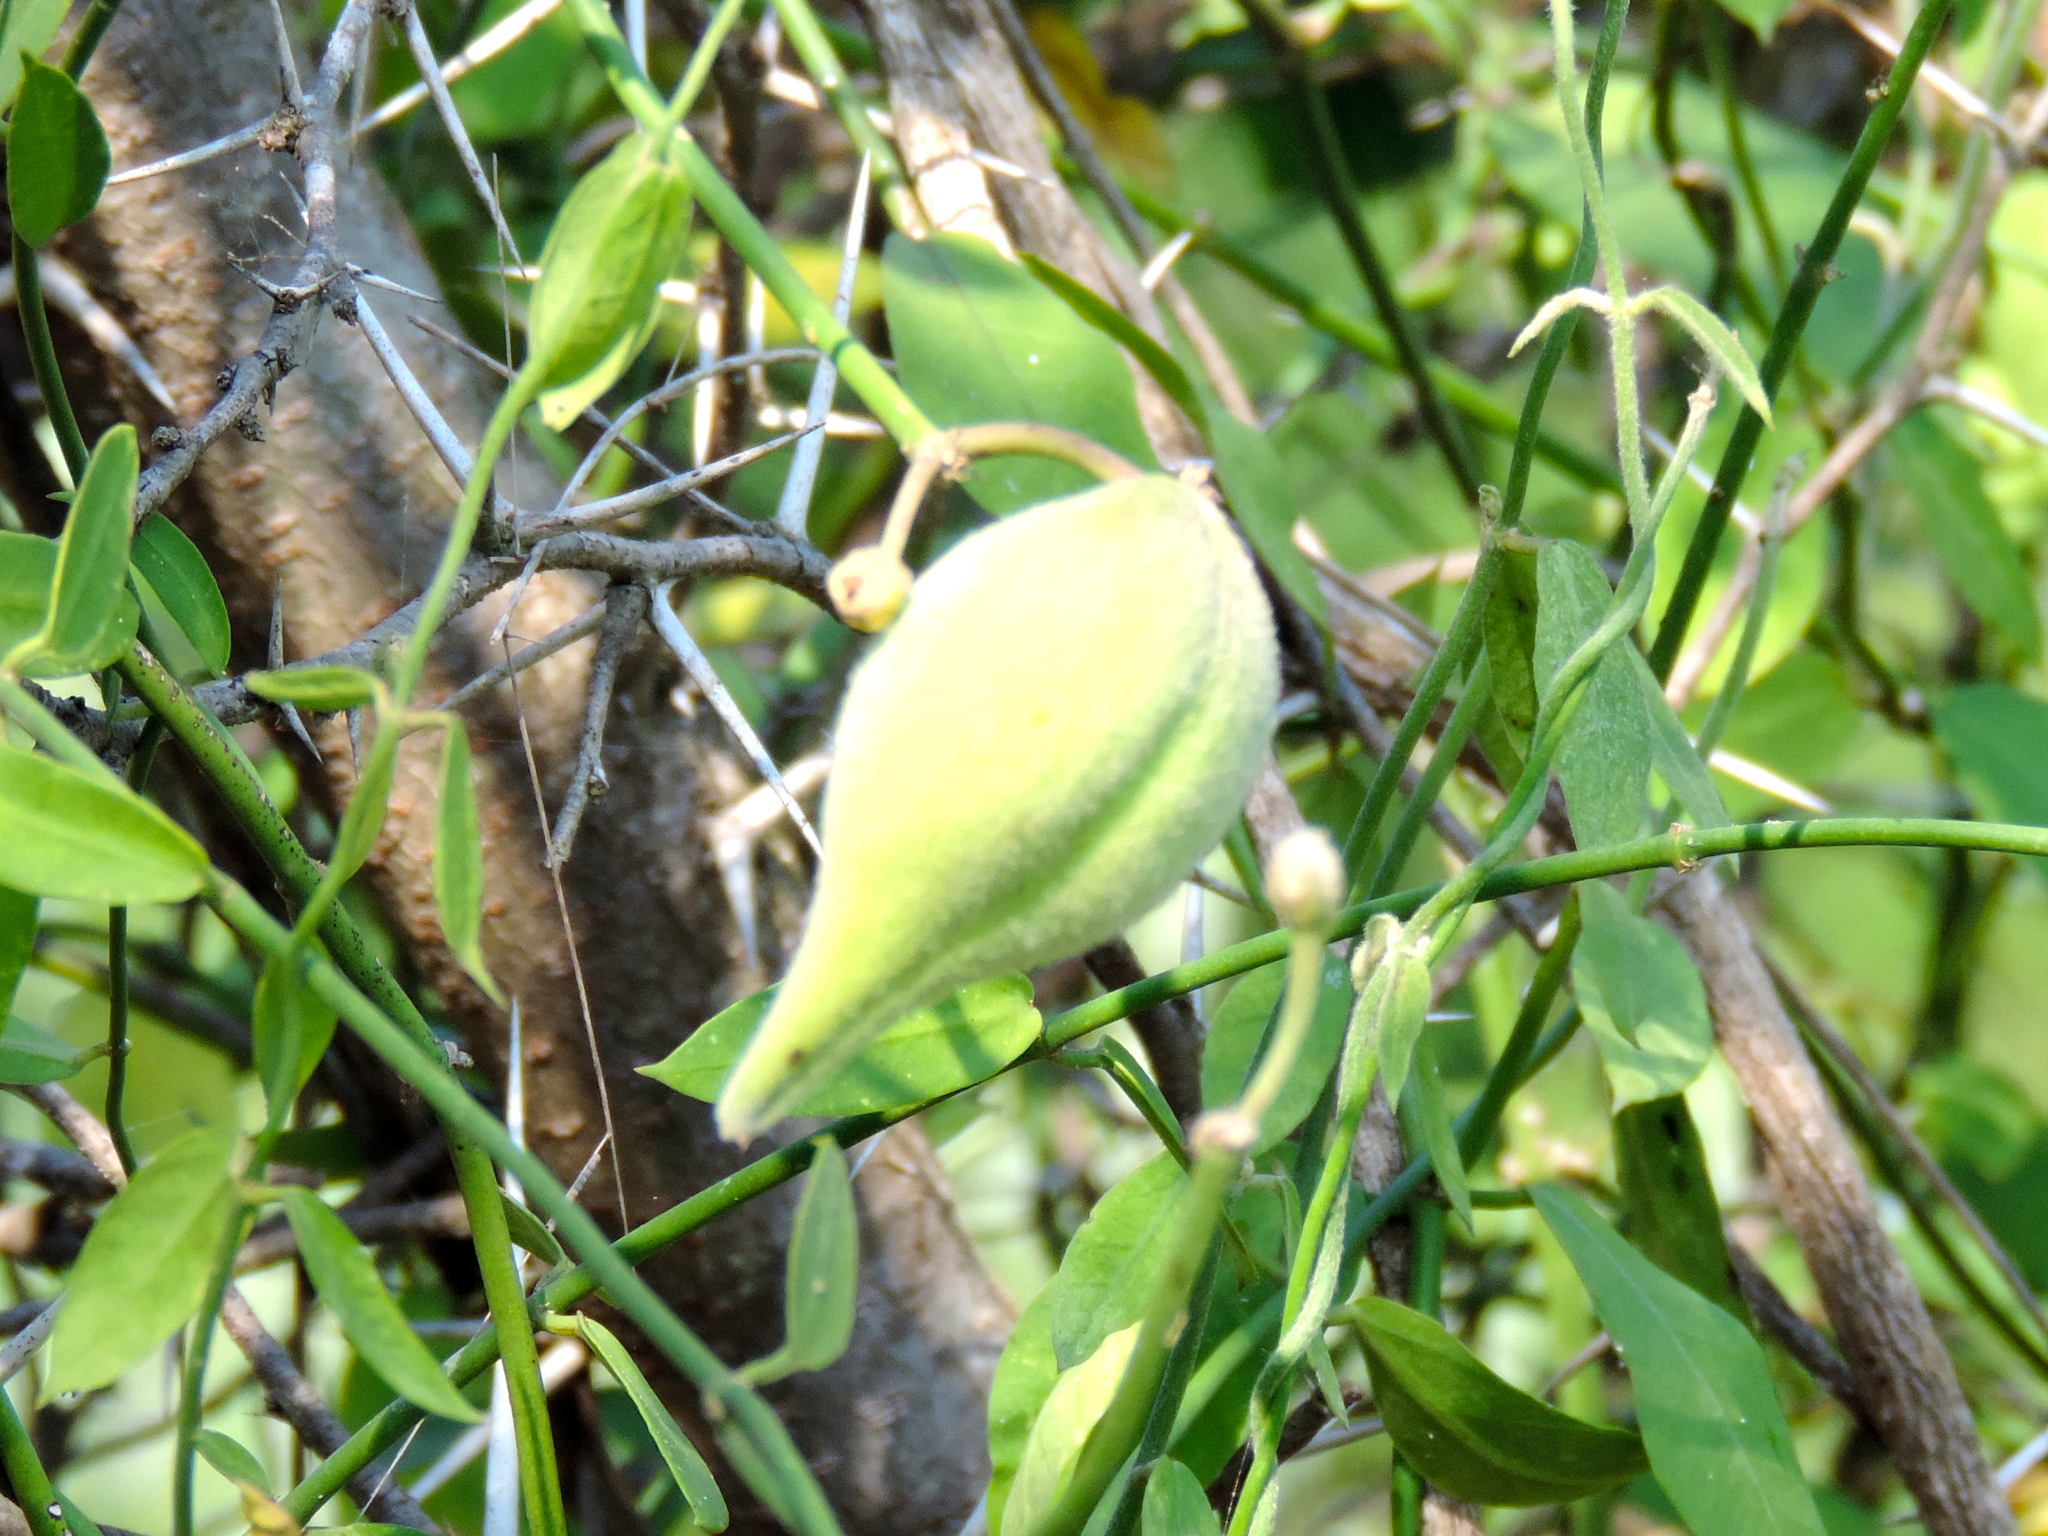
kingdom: Plantae
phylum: Tracheophyta
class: Magnoliopsida
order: Gentianales
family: Apocynaceae
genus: Funastrum
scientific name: Funastrum clausum
